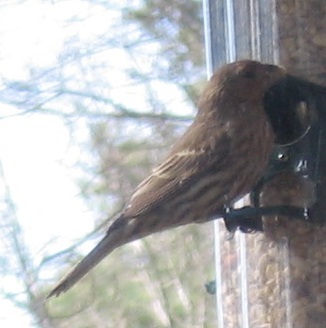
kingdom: Animalia
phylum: Chordata
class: Aves
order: Passeriformes
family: Fringillidae
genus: Haemorhous
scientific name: Haemorhous mexicanus
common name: House finch
